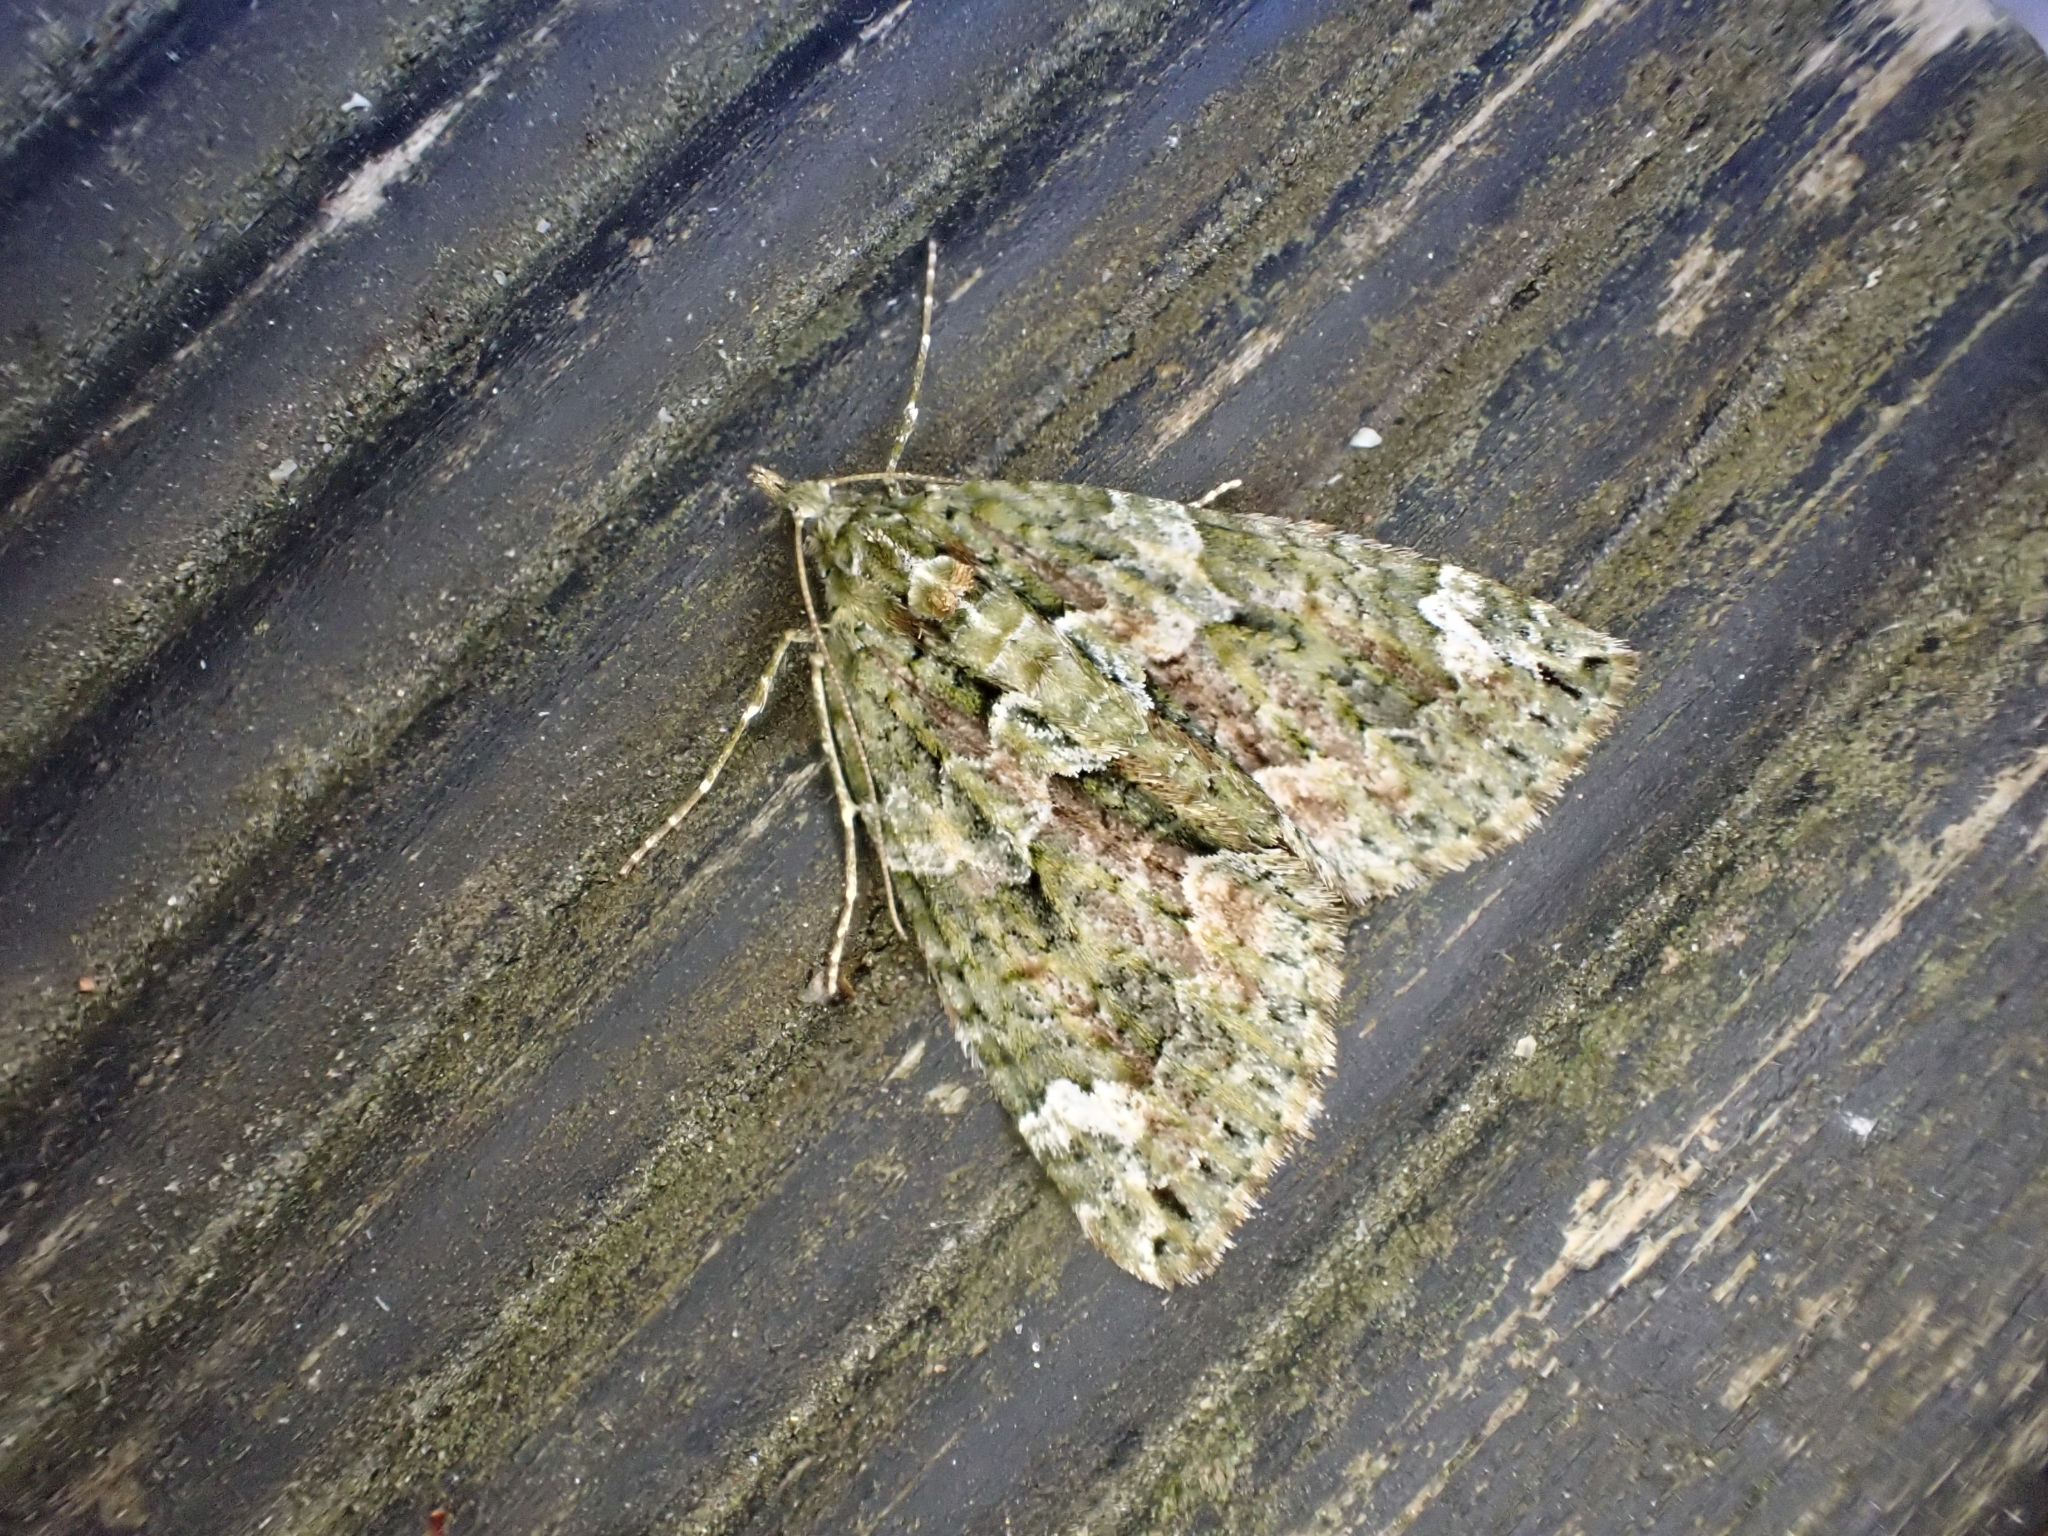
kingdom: Animalia
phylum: Arthropoda
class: Insecta
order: Lepidoptera
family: Geometridae
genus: Chloroclysta
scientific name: Chloroclysta siterata
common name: Red-green carpet
